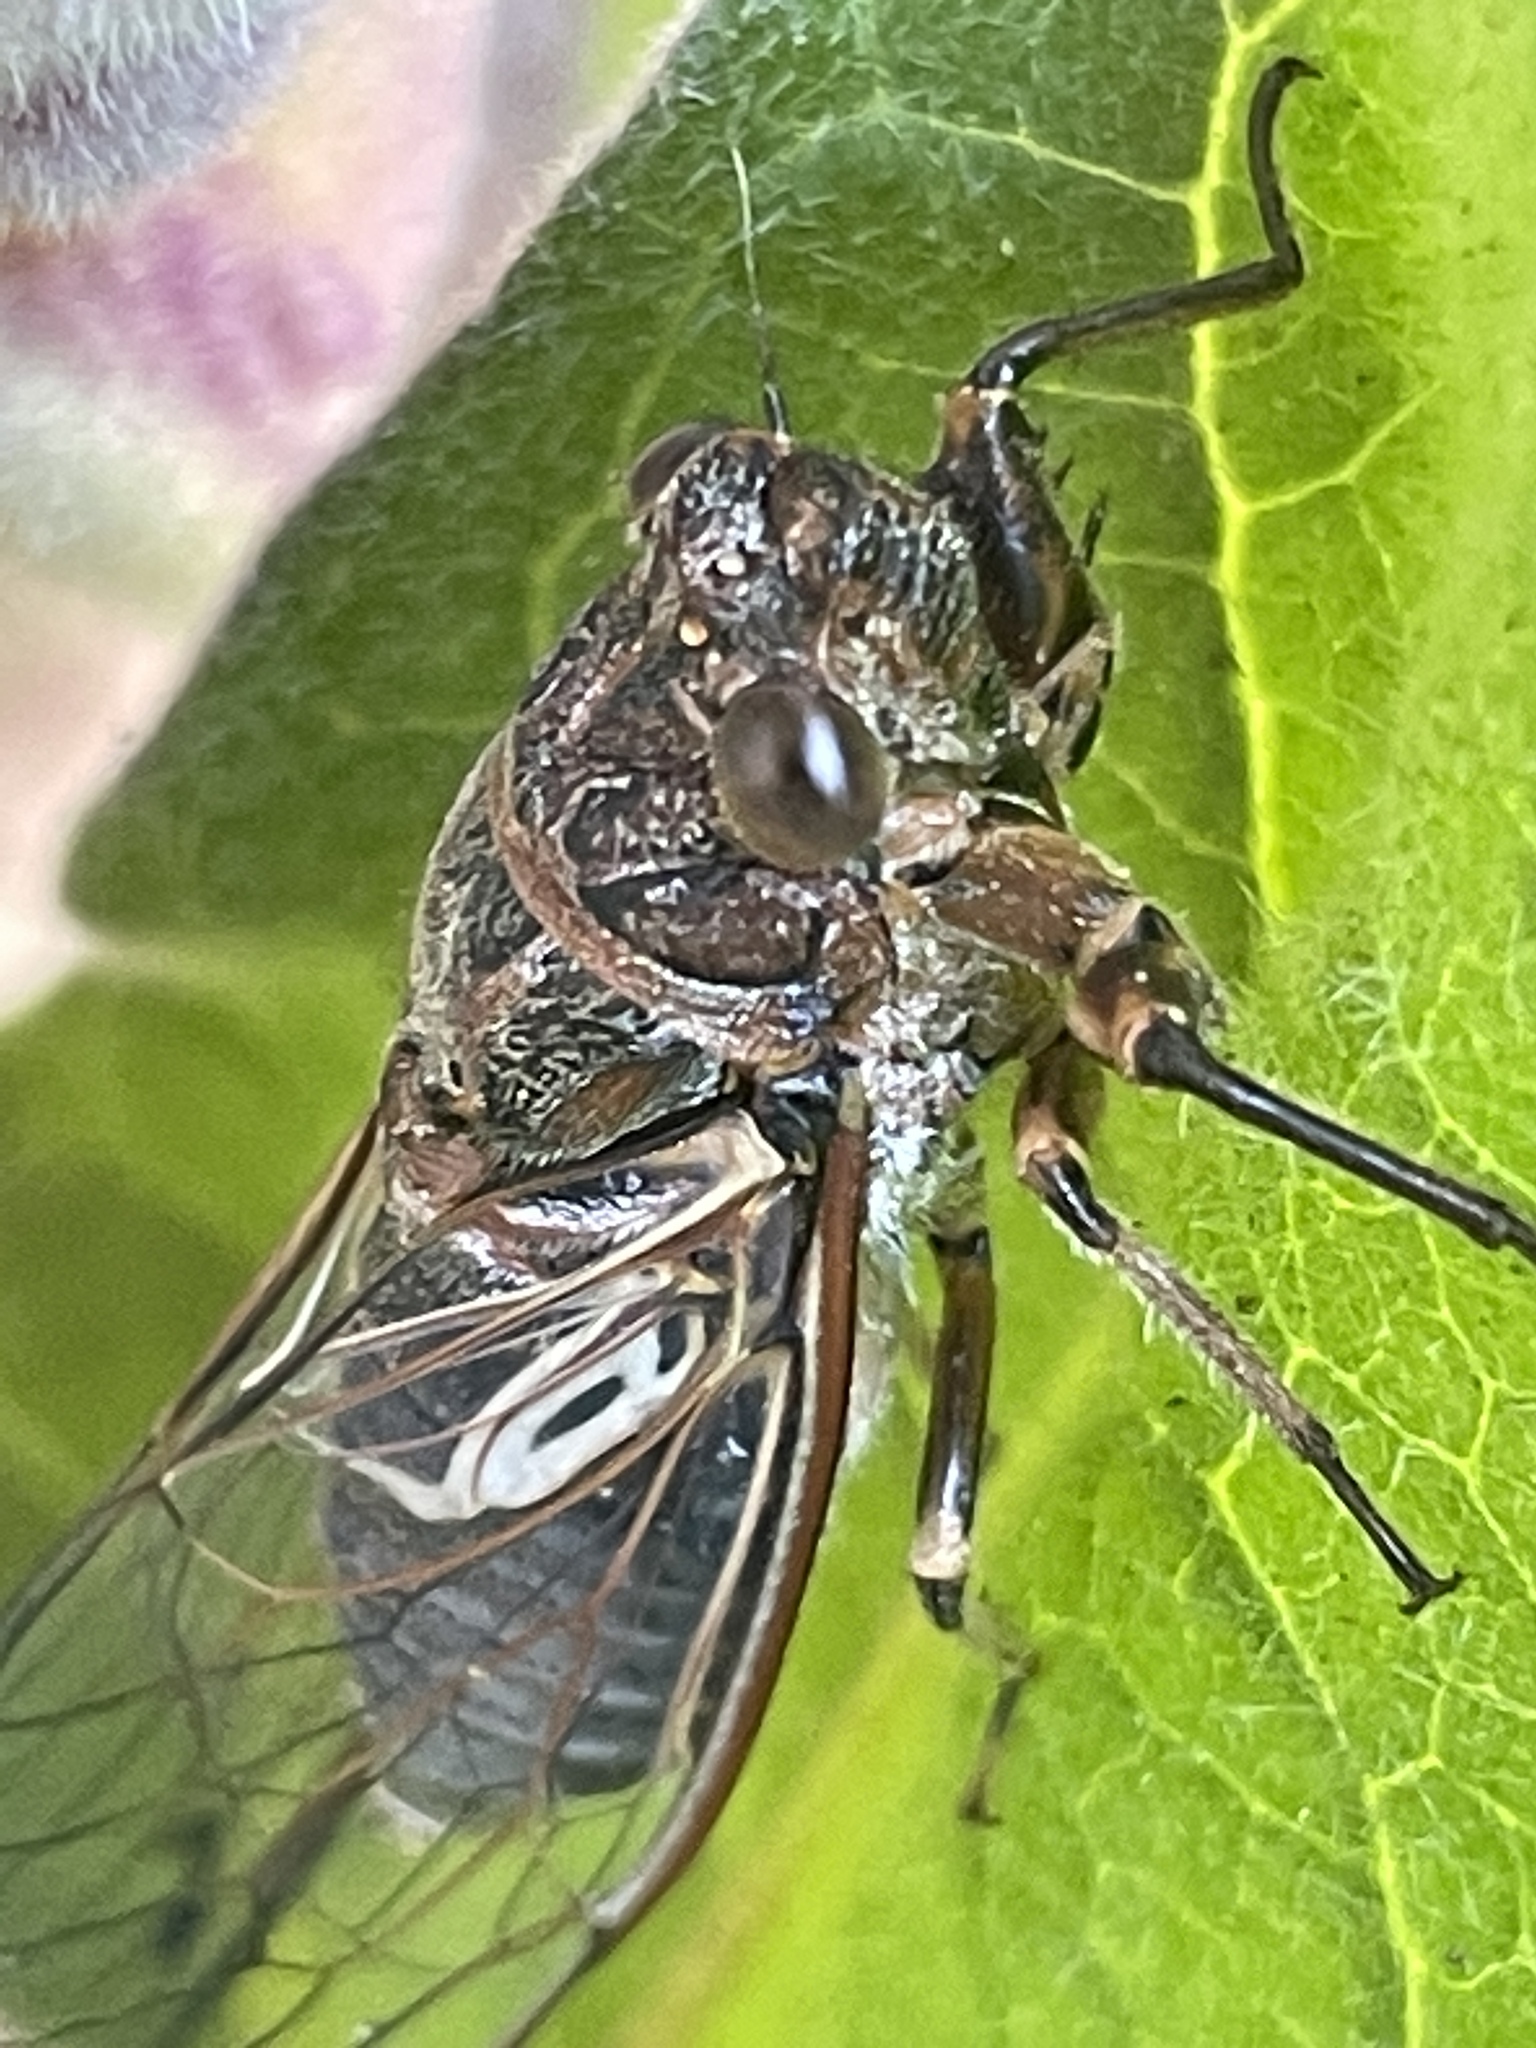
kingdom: Animalia
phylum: Arthropoda
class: Insecta
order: Hemiptera
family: Cicadidae
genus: Gelidea
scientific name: Gelidea torrida
